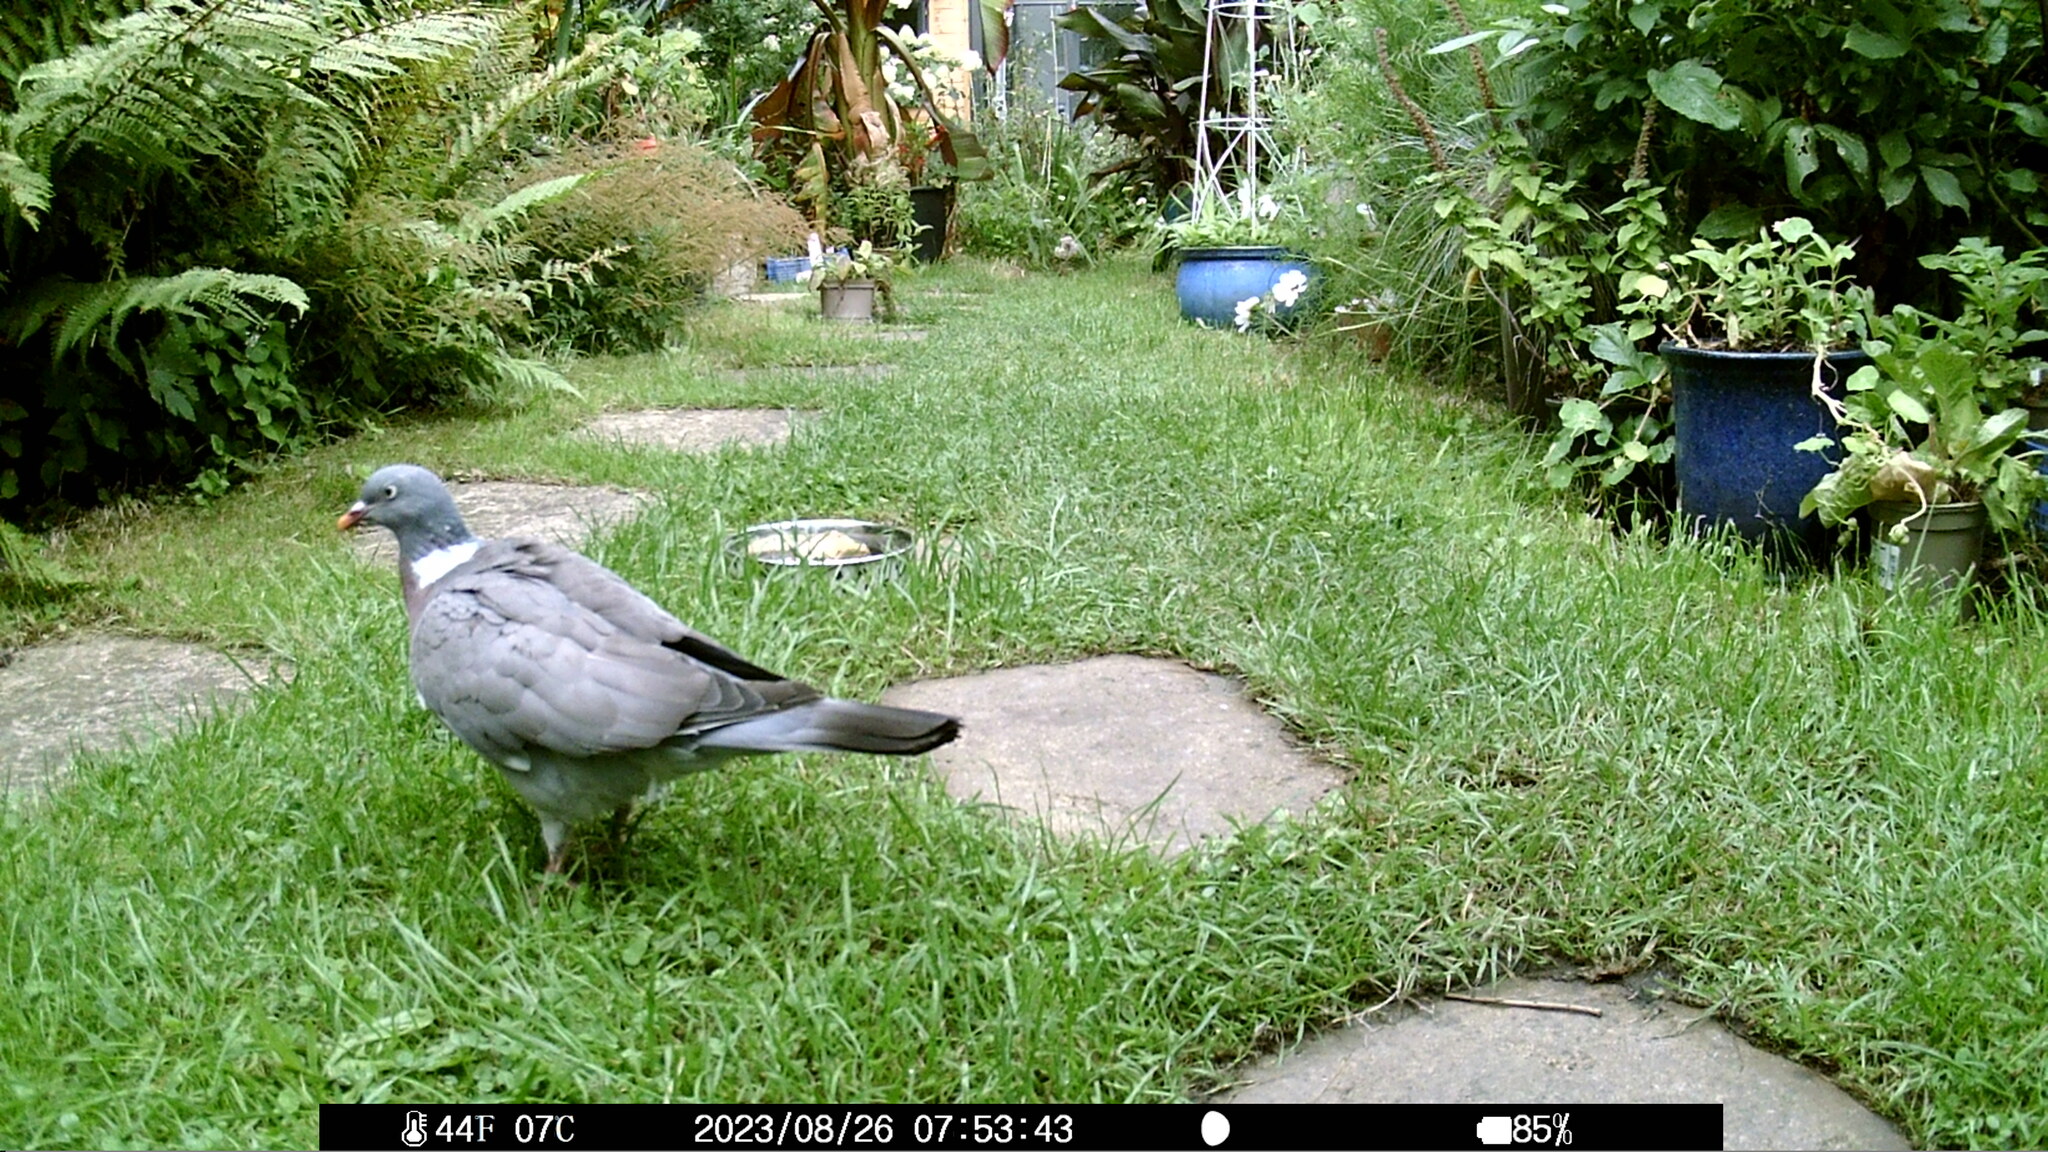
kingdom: Animalia
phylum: Chordata
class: Aves
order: Columbiformes
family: Columbidae
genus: Columba
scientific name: Columba palumbus
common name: Common wood pigeon
